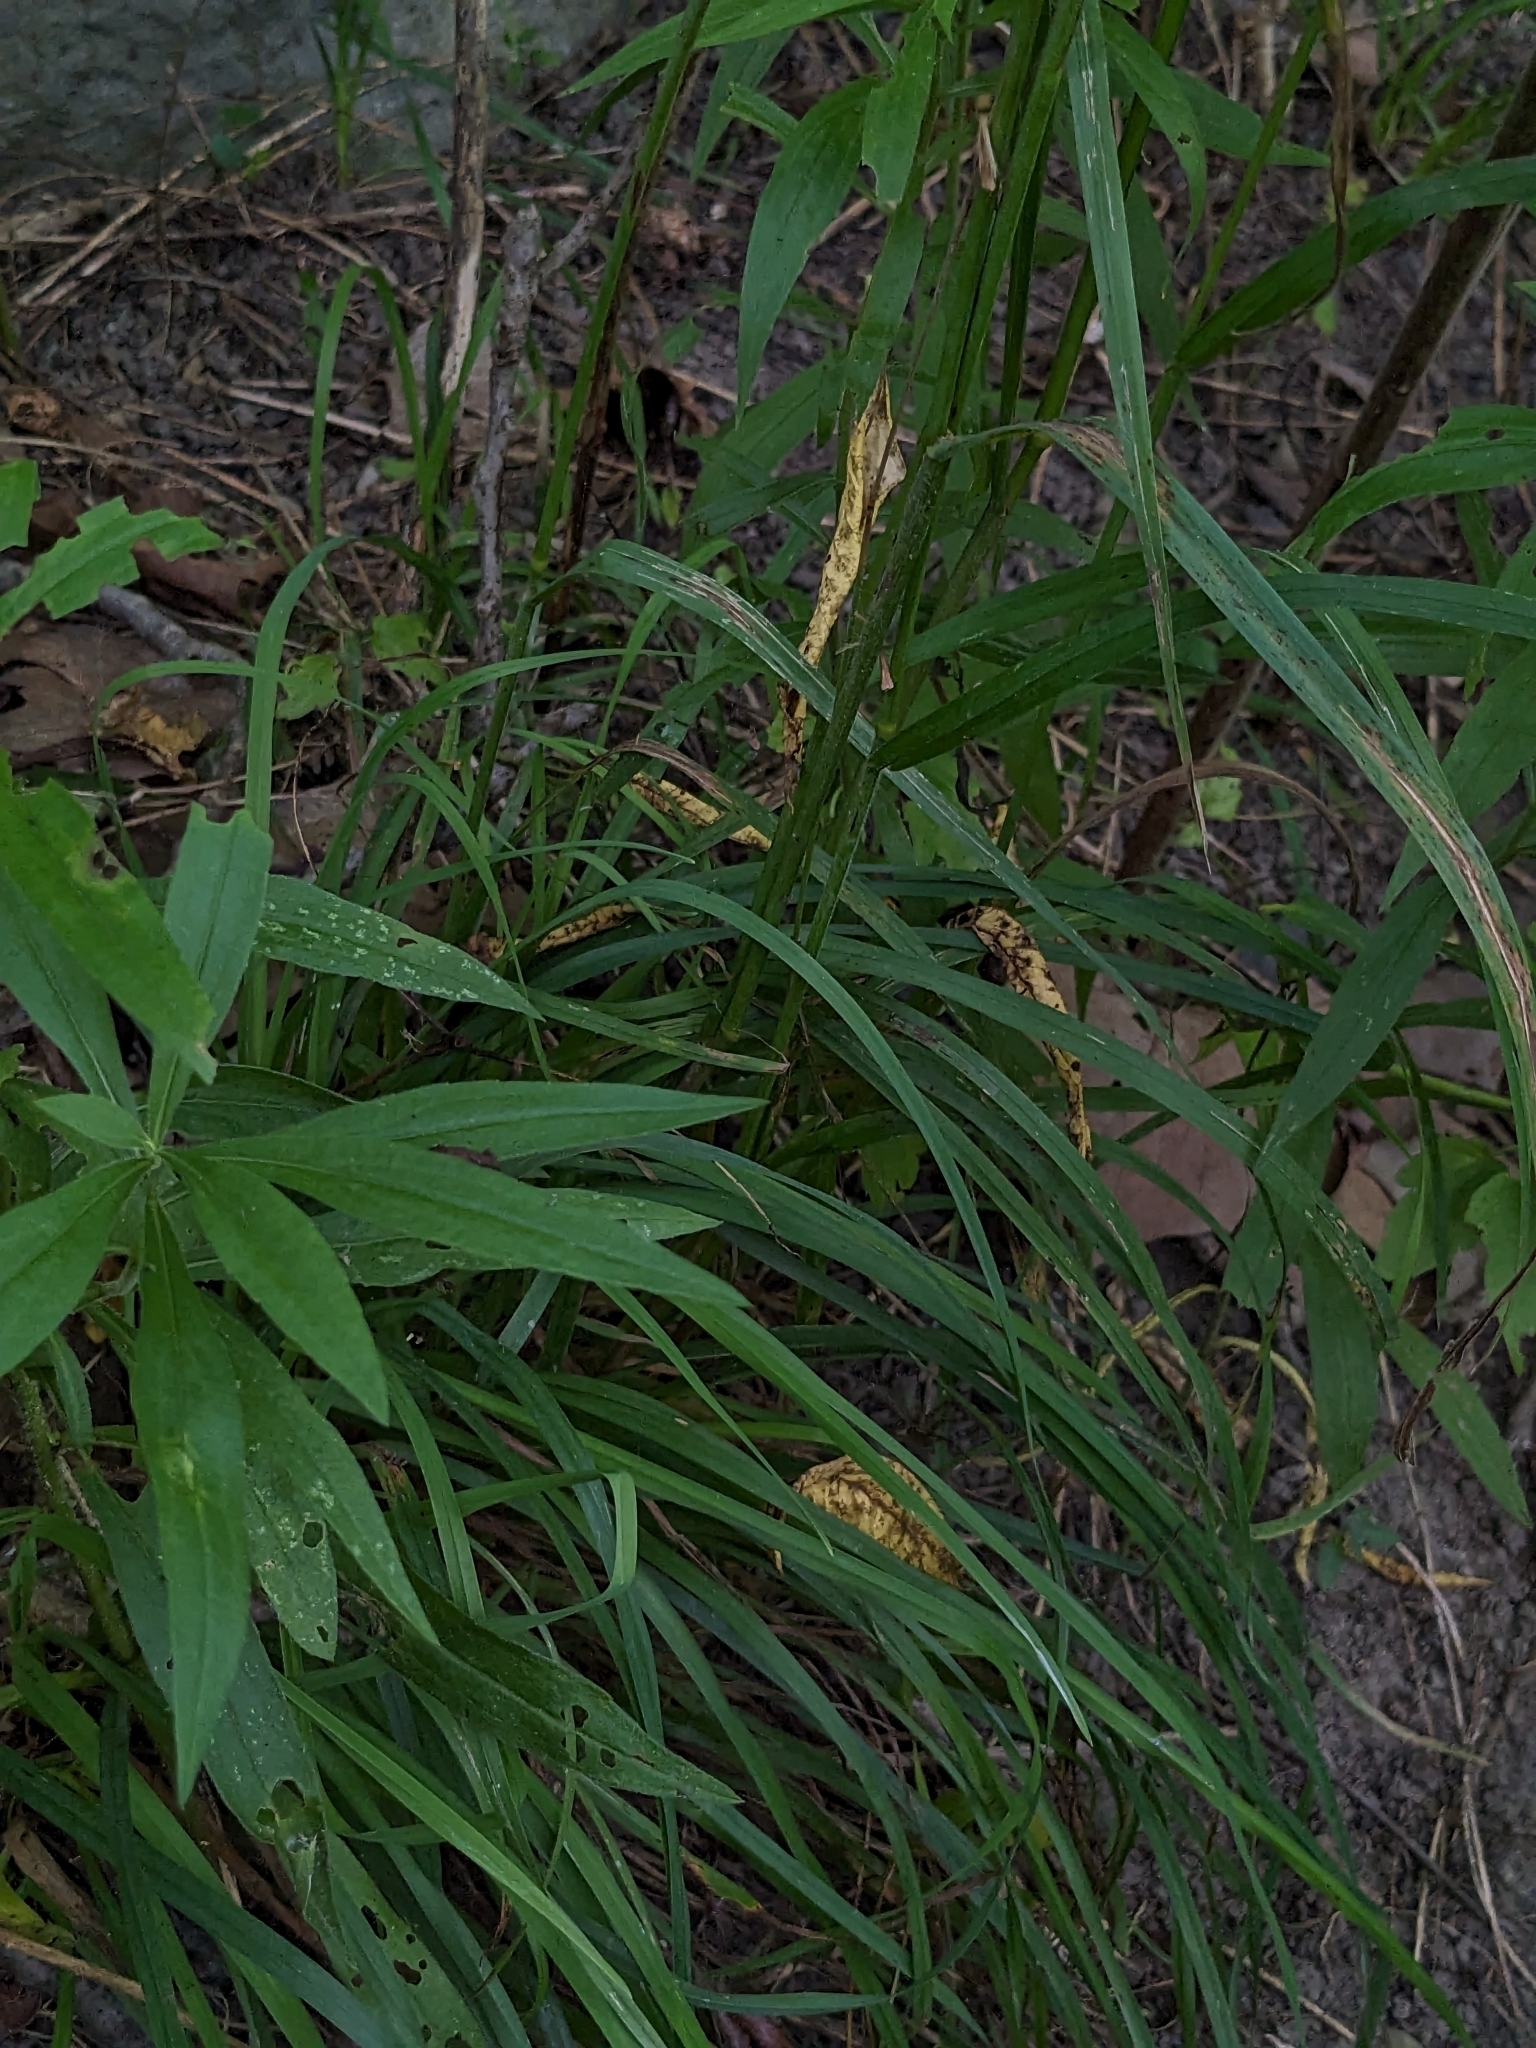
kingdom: Plantae
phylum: Tracheophyta
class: Liliopsida
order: Poales
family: Poaceae
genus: Dactylis
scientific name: Dactylis glomerata
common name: Orchardgrass
